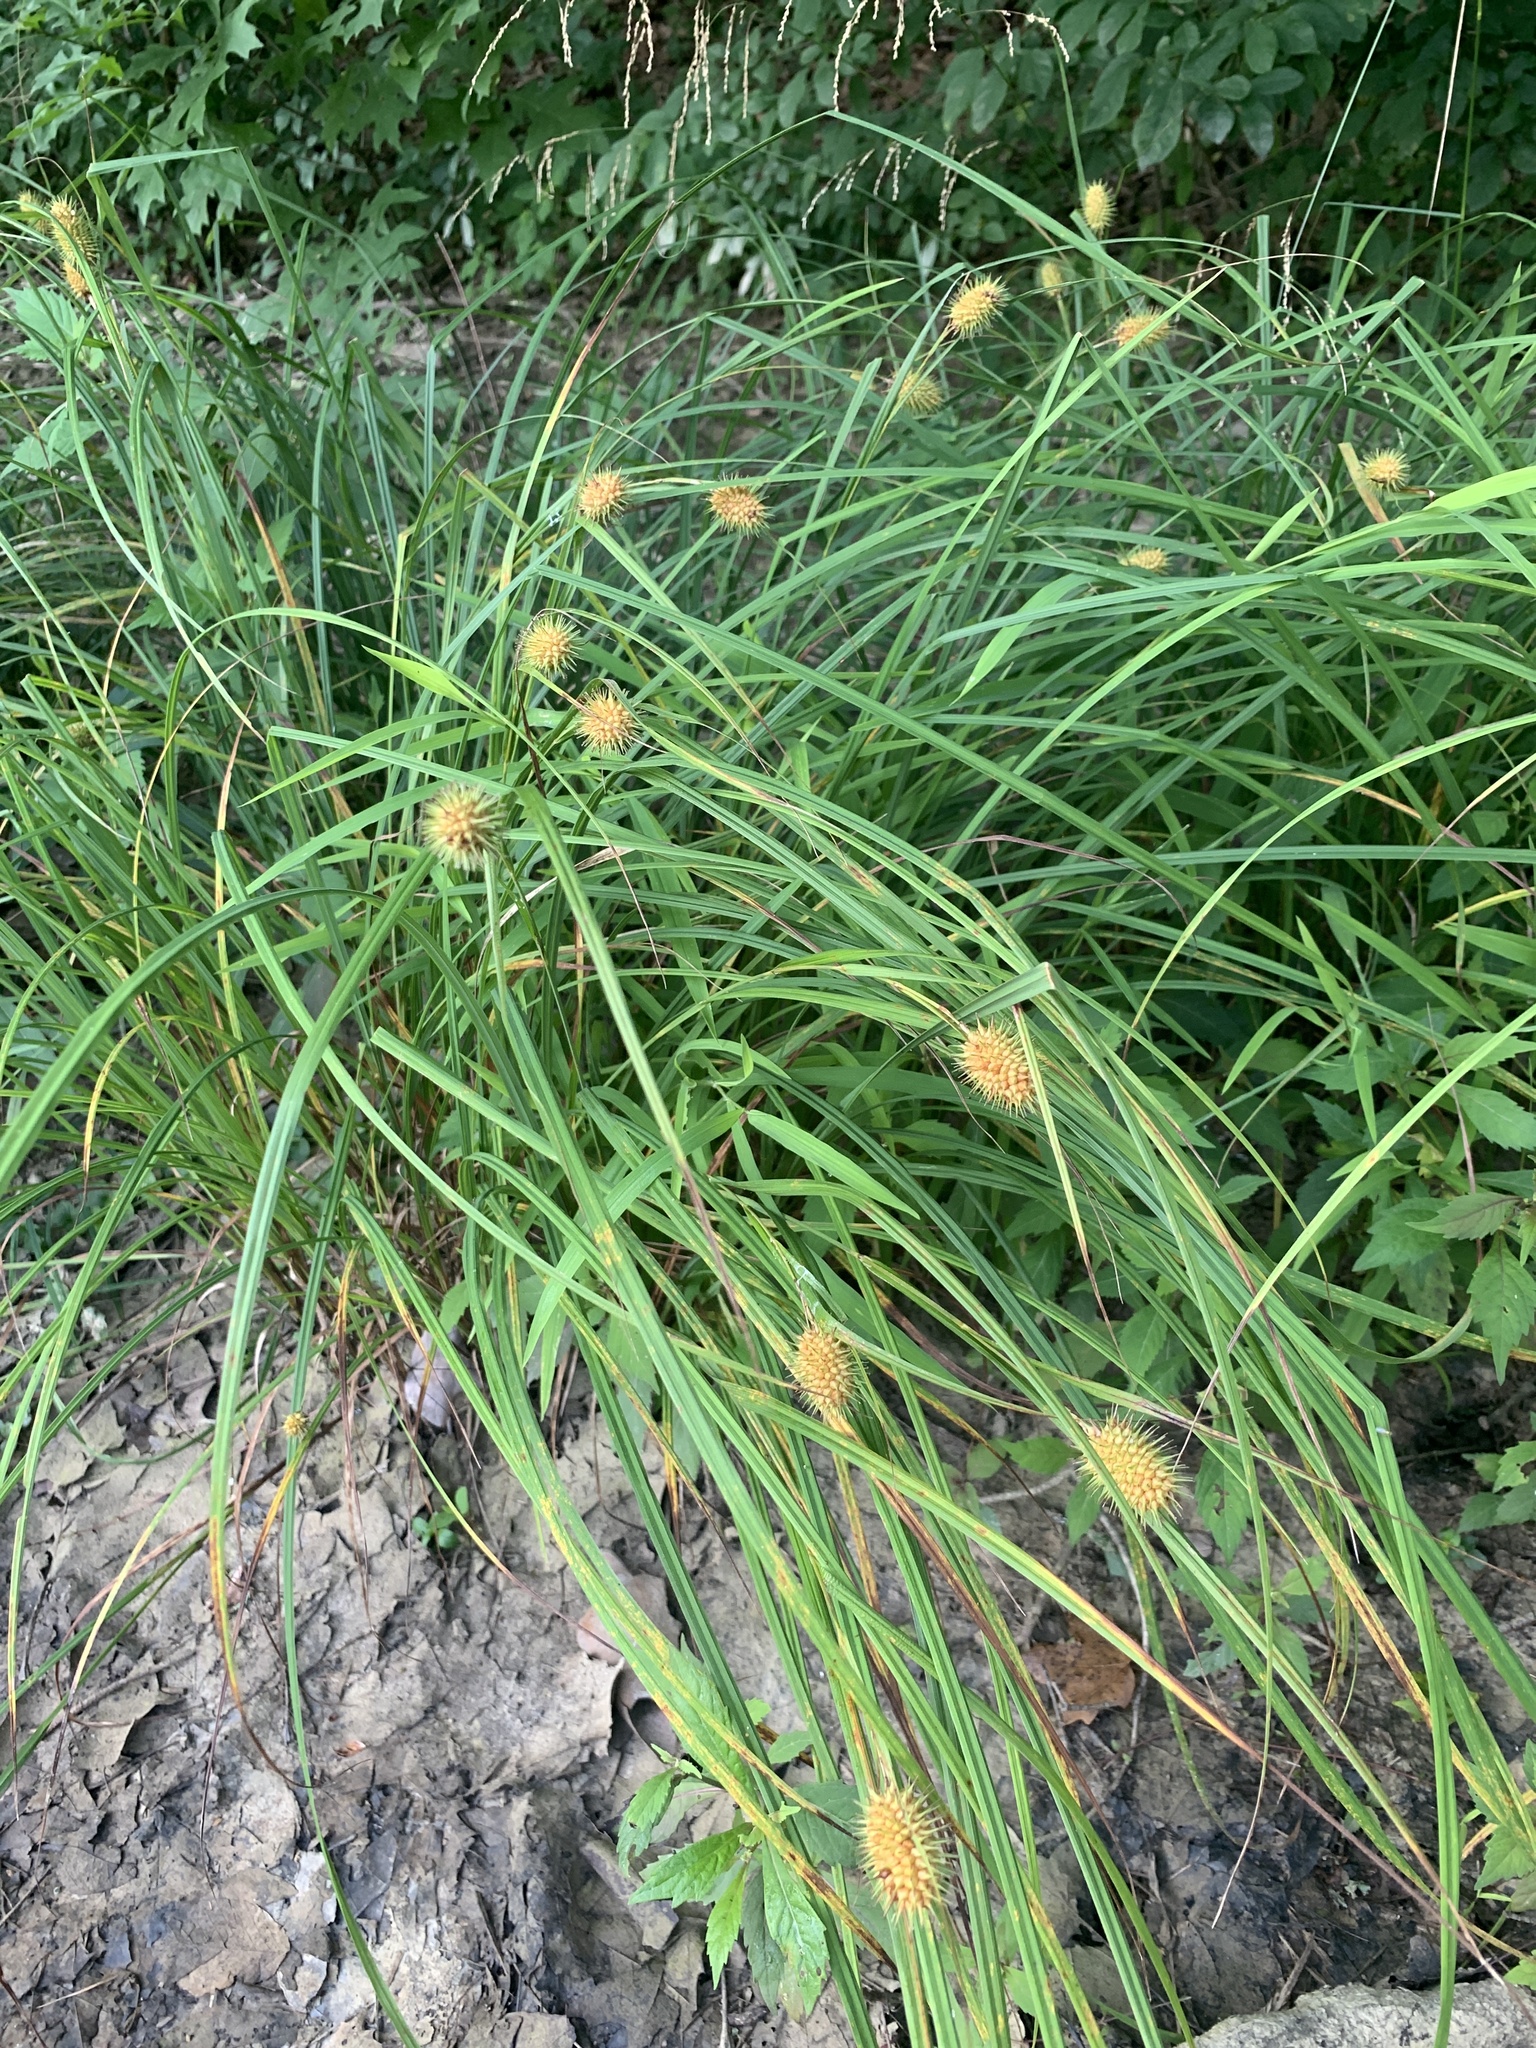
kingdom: Plantae
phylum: Tracheophyta
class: Liliopsida
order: Poales
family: Cyperaceae
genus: Carex
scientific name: Carex squarrosa
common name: Narrow-leaved cattail sedge
